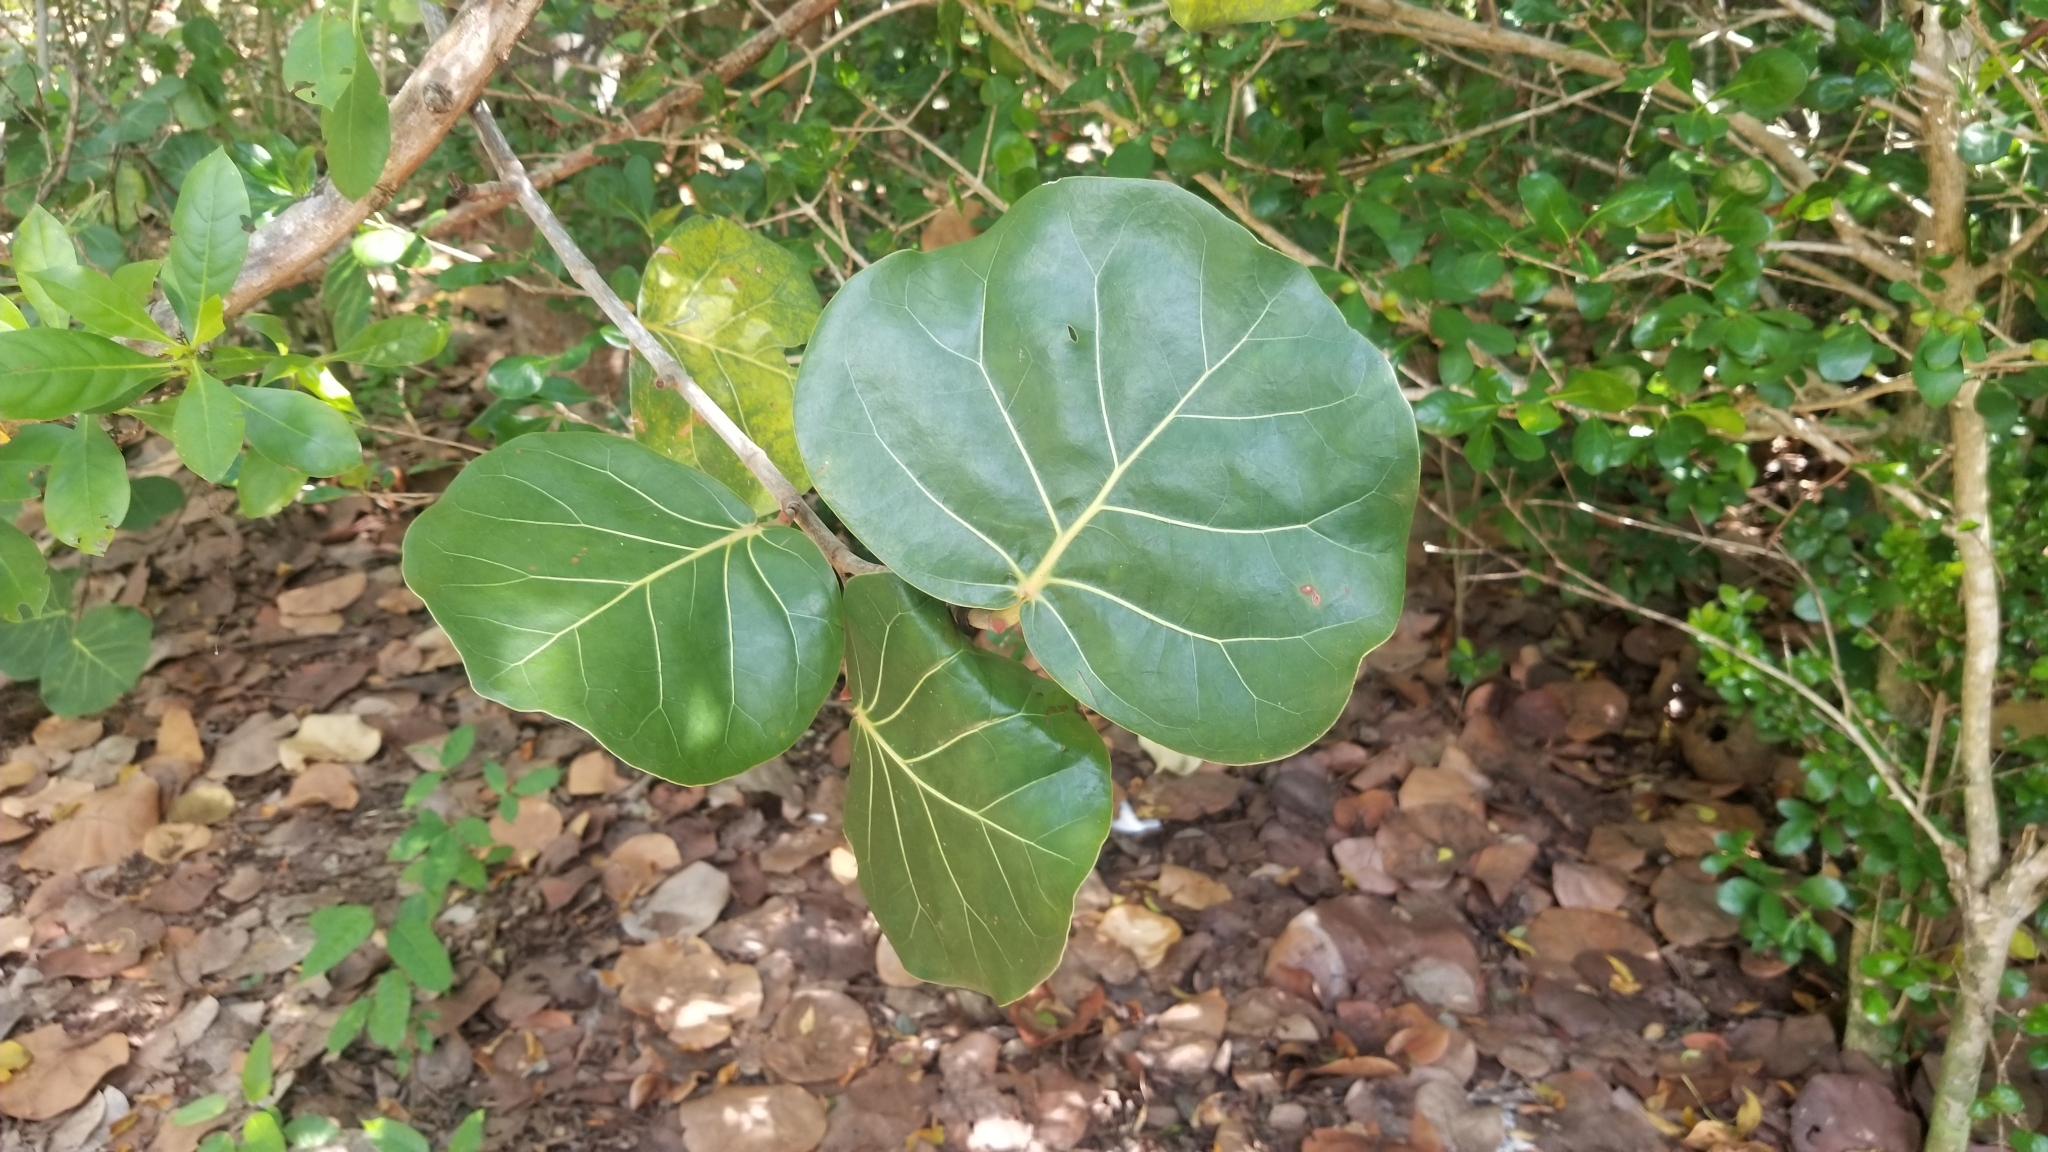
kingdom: Plantae
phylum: Tracheophyta
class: Magnoliopsida
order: Caryophyllales
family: Polygonaceae
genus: Coccoloba
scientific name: Coccoloba uvifera
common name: Seagrape
